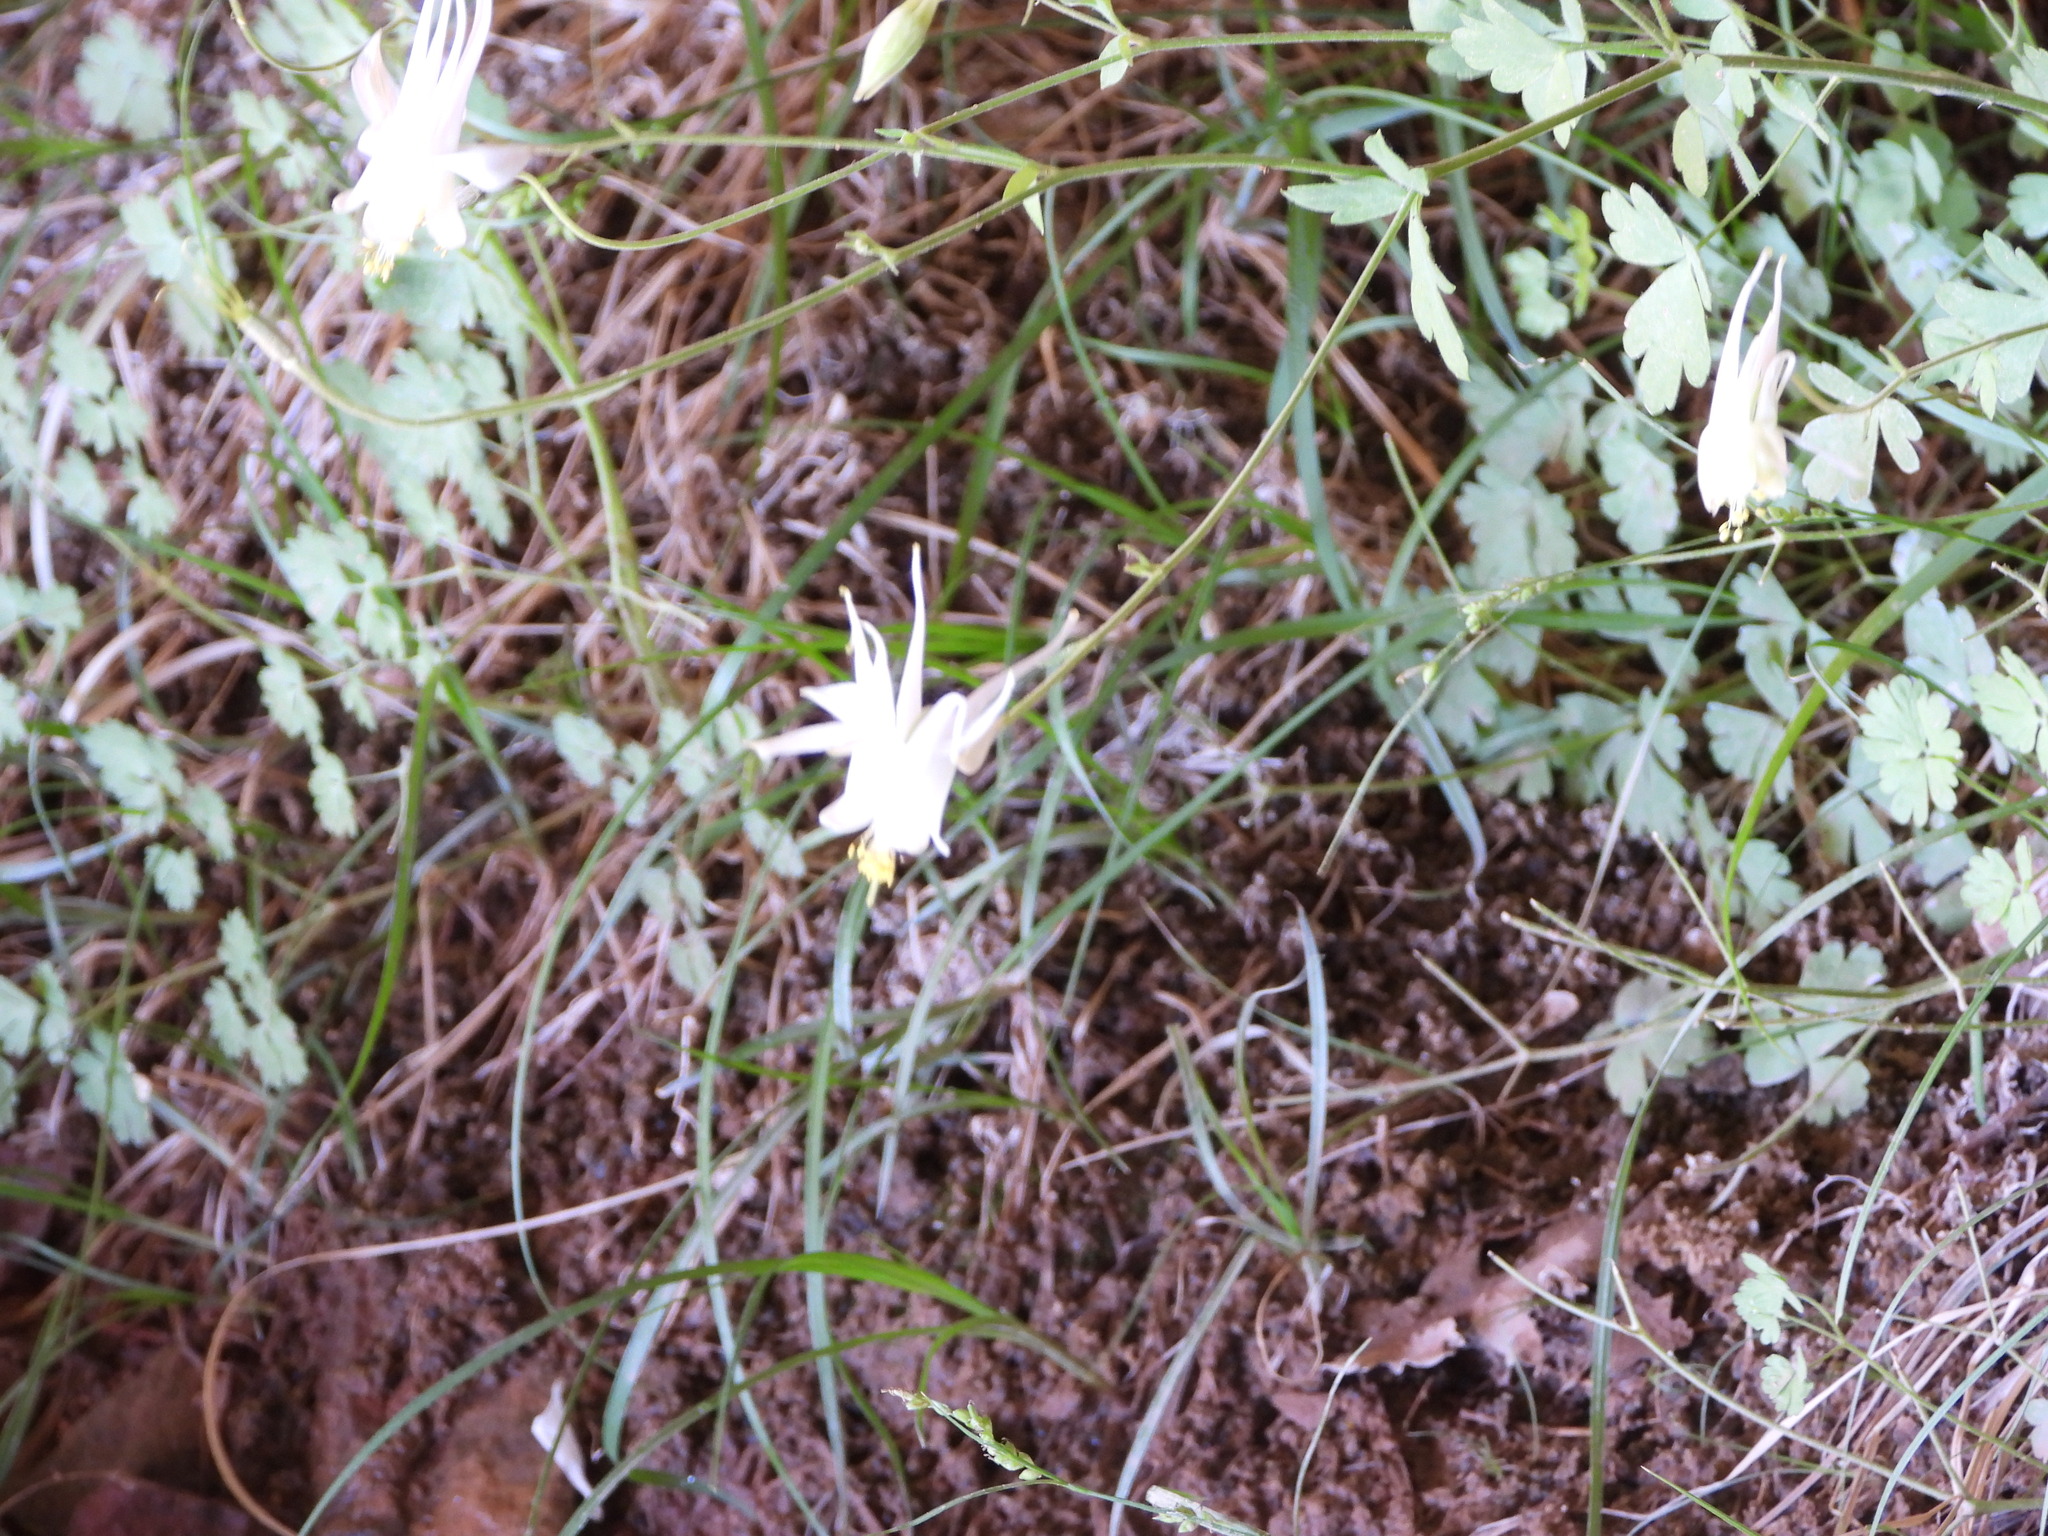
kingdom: Plantae
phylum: Tracheophyta
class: Magnoliopsida
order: Ranunculales
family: Ranunculaceae
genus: Aquilegia
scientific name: Aquilegia micrantha
